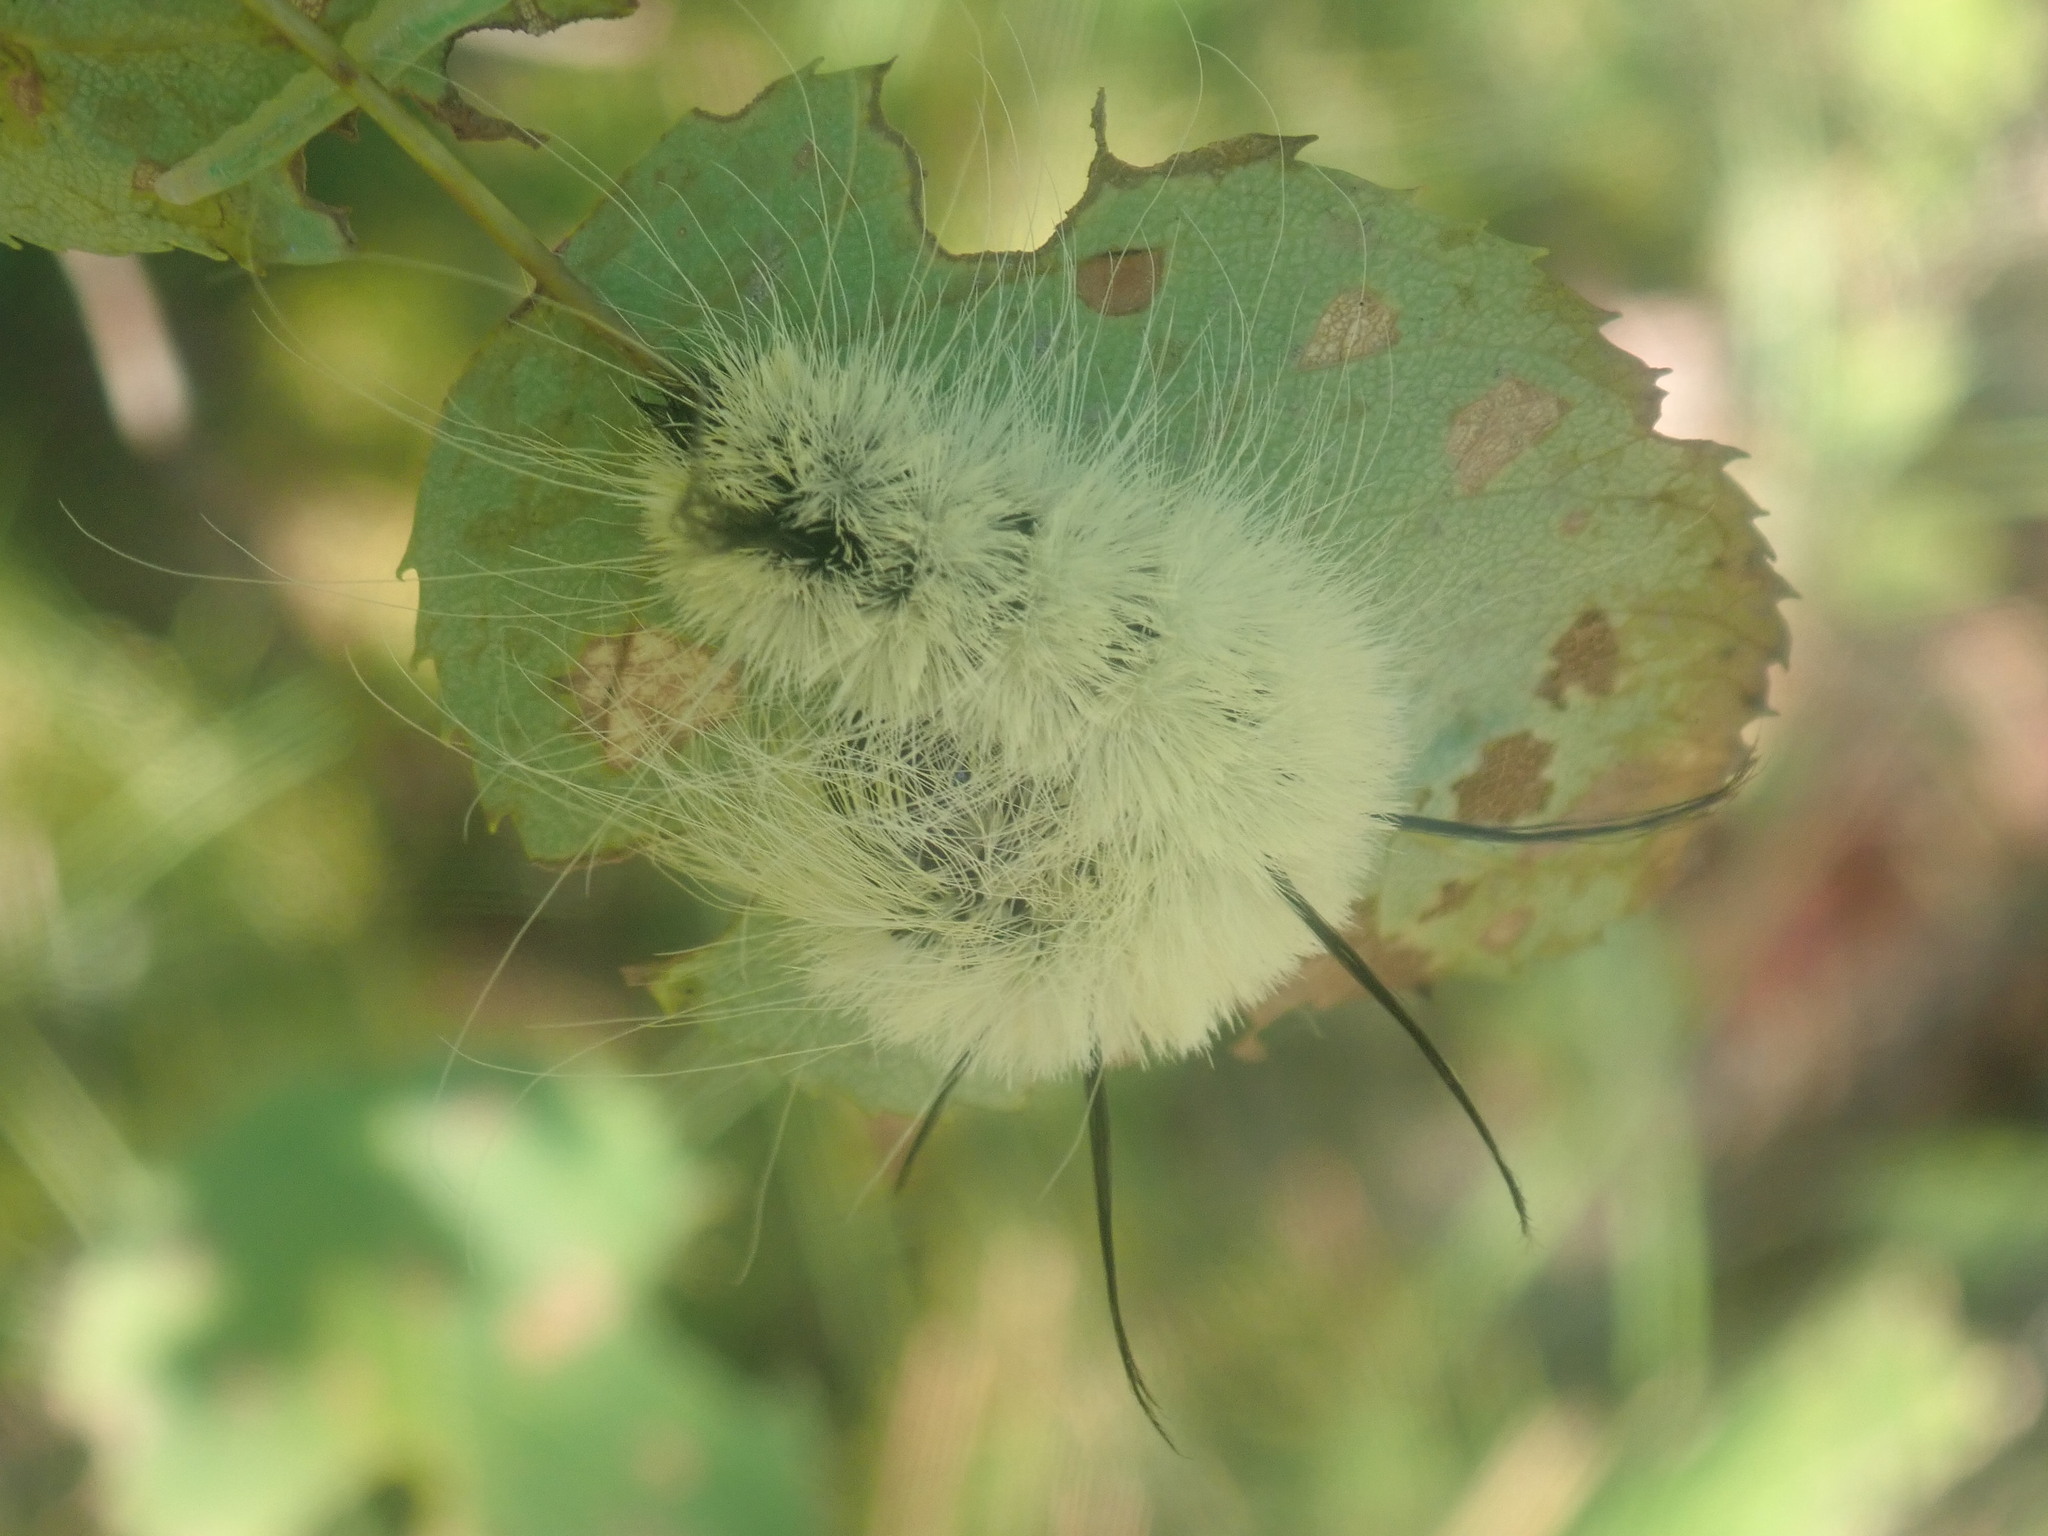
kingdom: Animalia
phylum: Arthropoda
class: Insecta
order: Lepidoptera
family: Noctuidae
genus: Acronicta
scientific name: Acronicta americana
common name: American dagger
